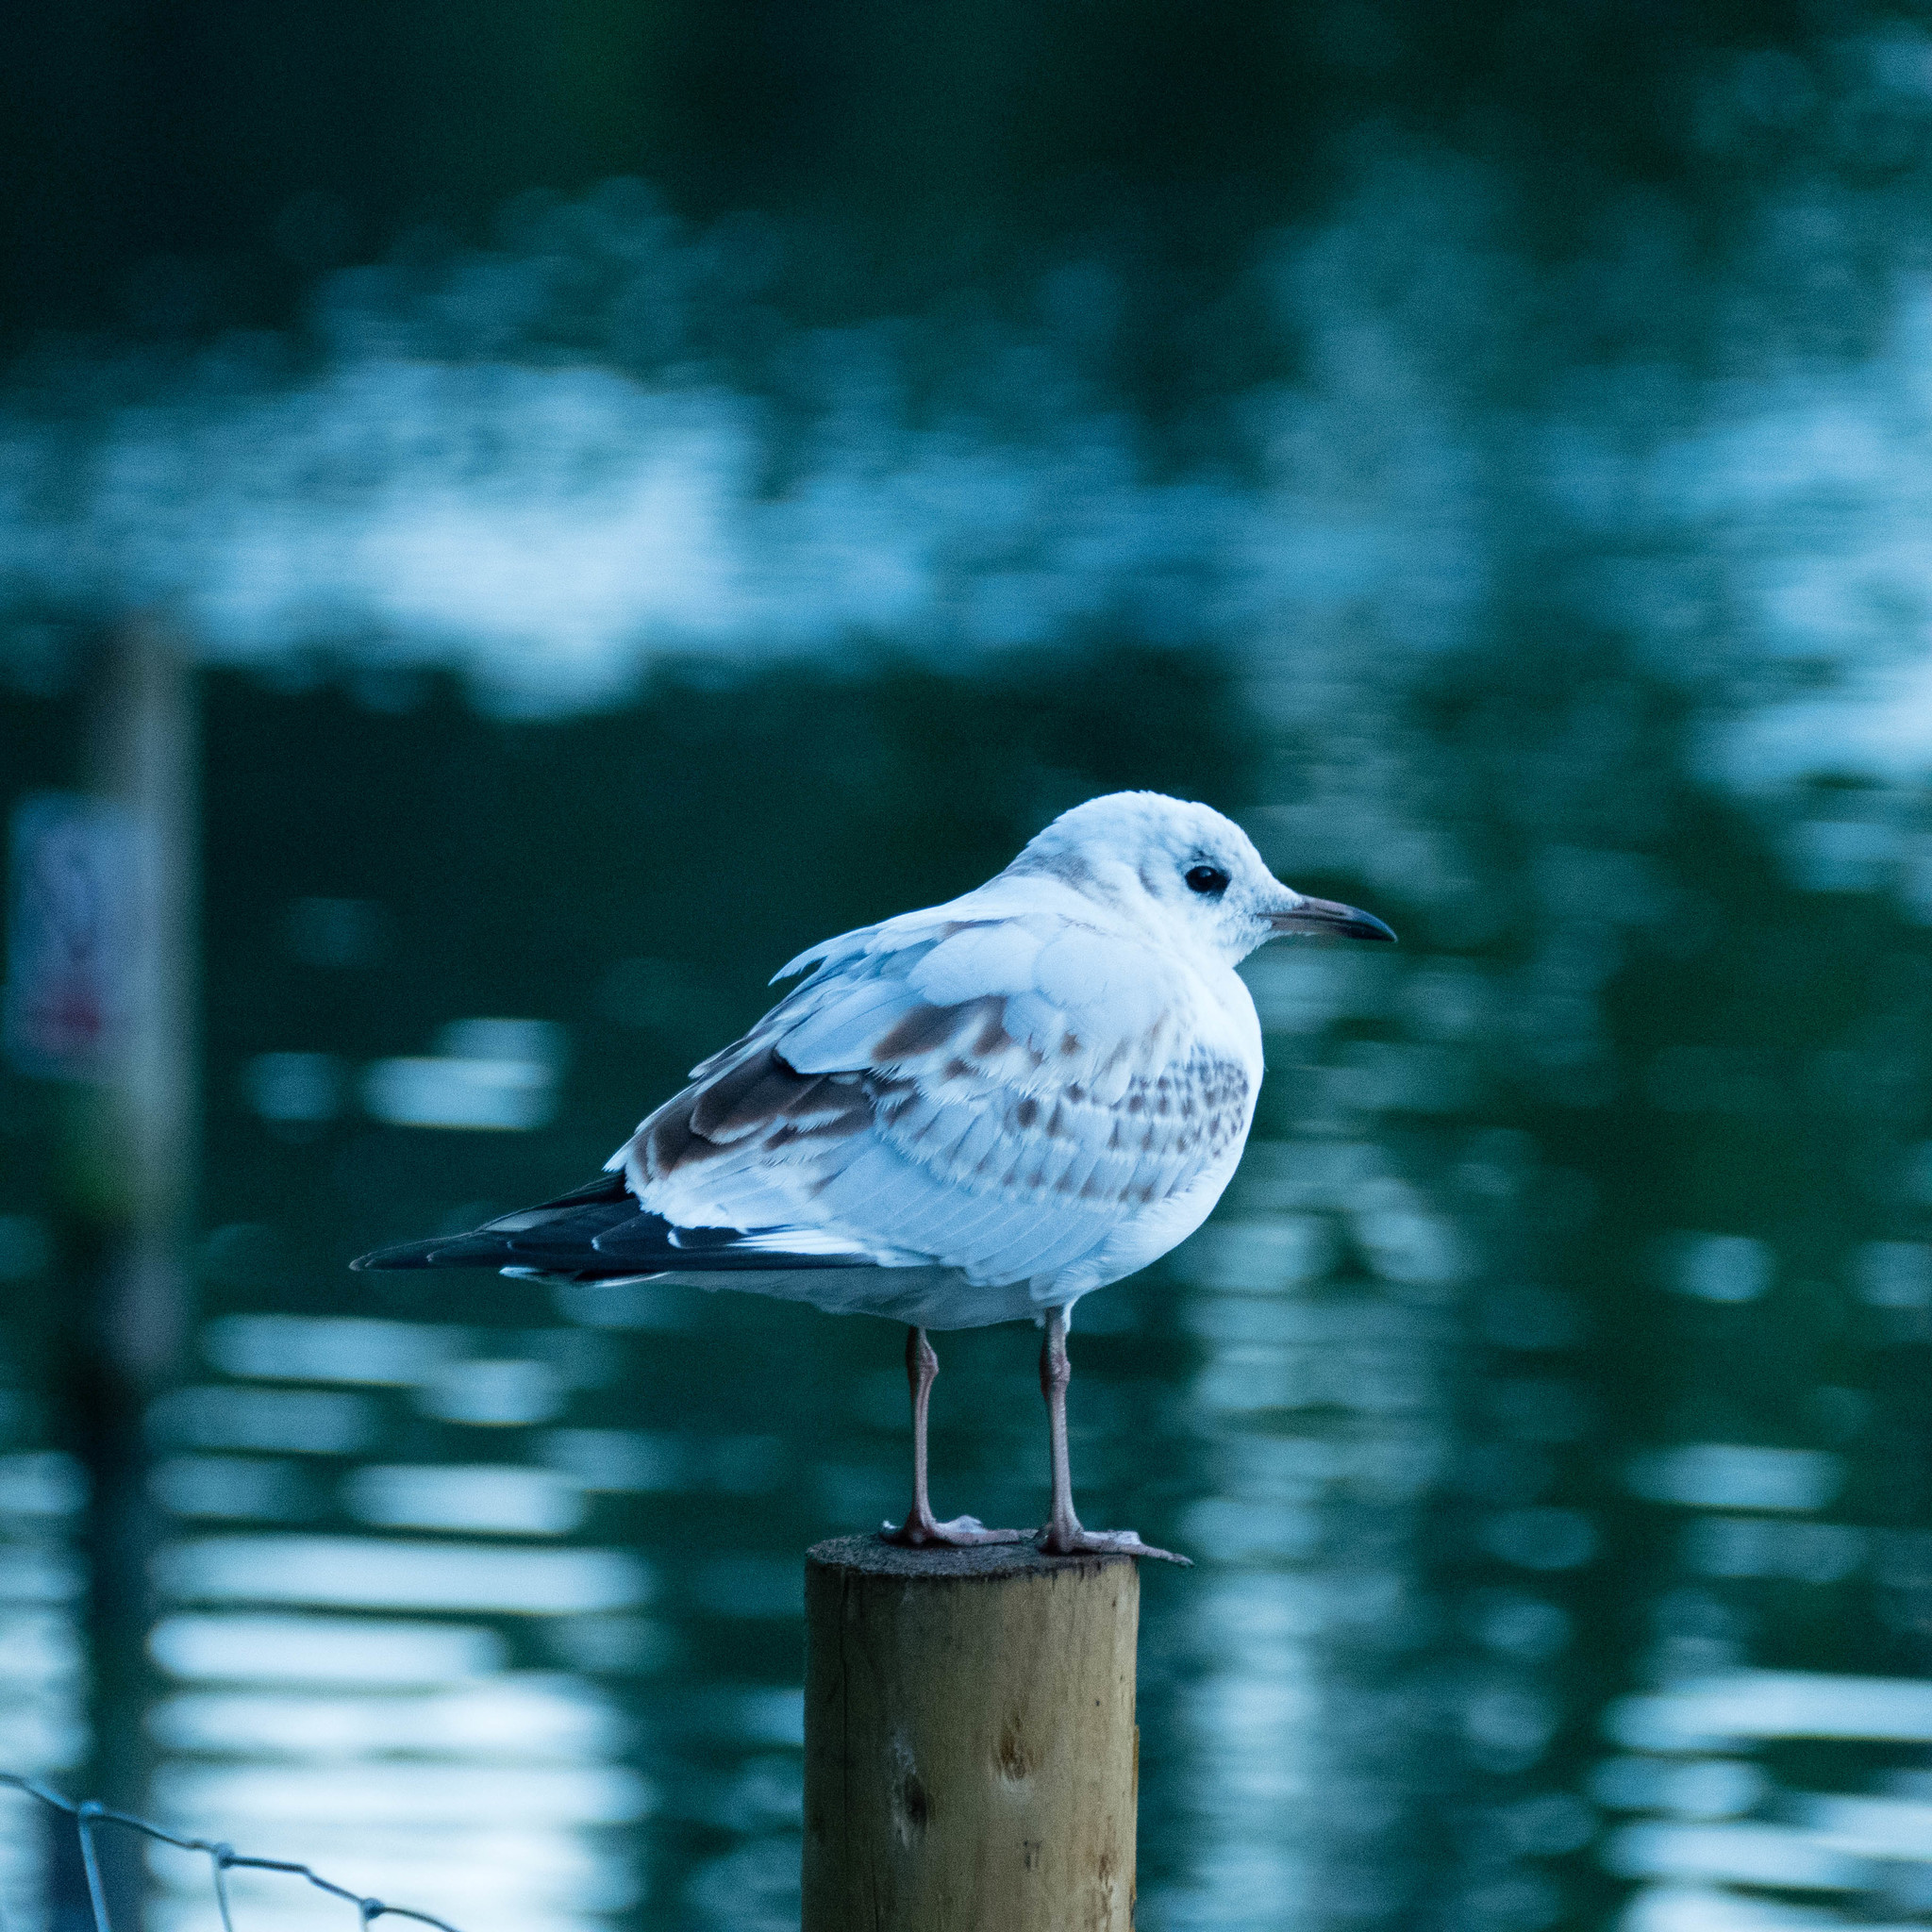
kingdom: Animalia
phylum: Chordata
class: Aves
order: Charadriiformes
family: Laridae
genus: Chroicocephalus
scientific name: Chroicocephalus ridibundus
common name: Black-headed gull
